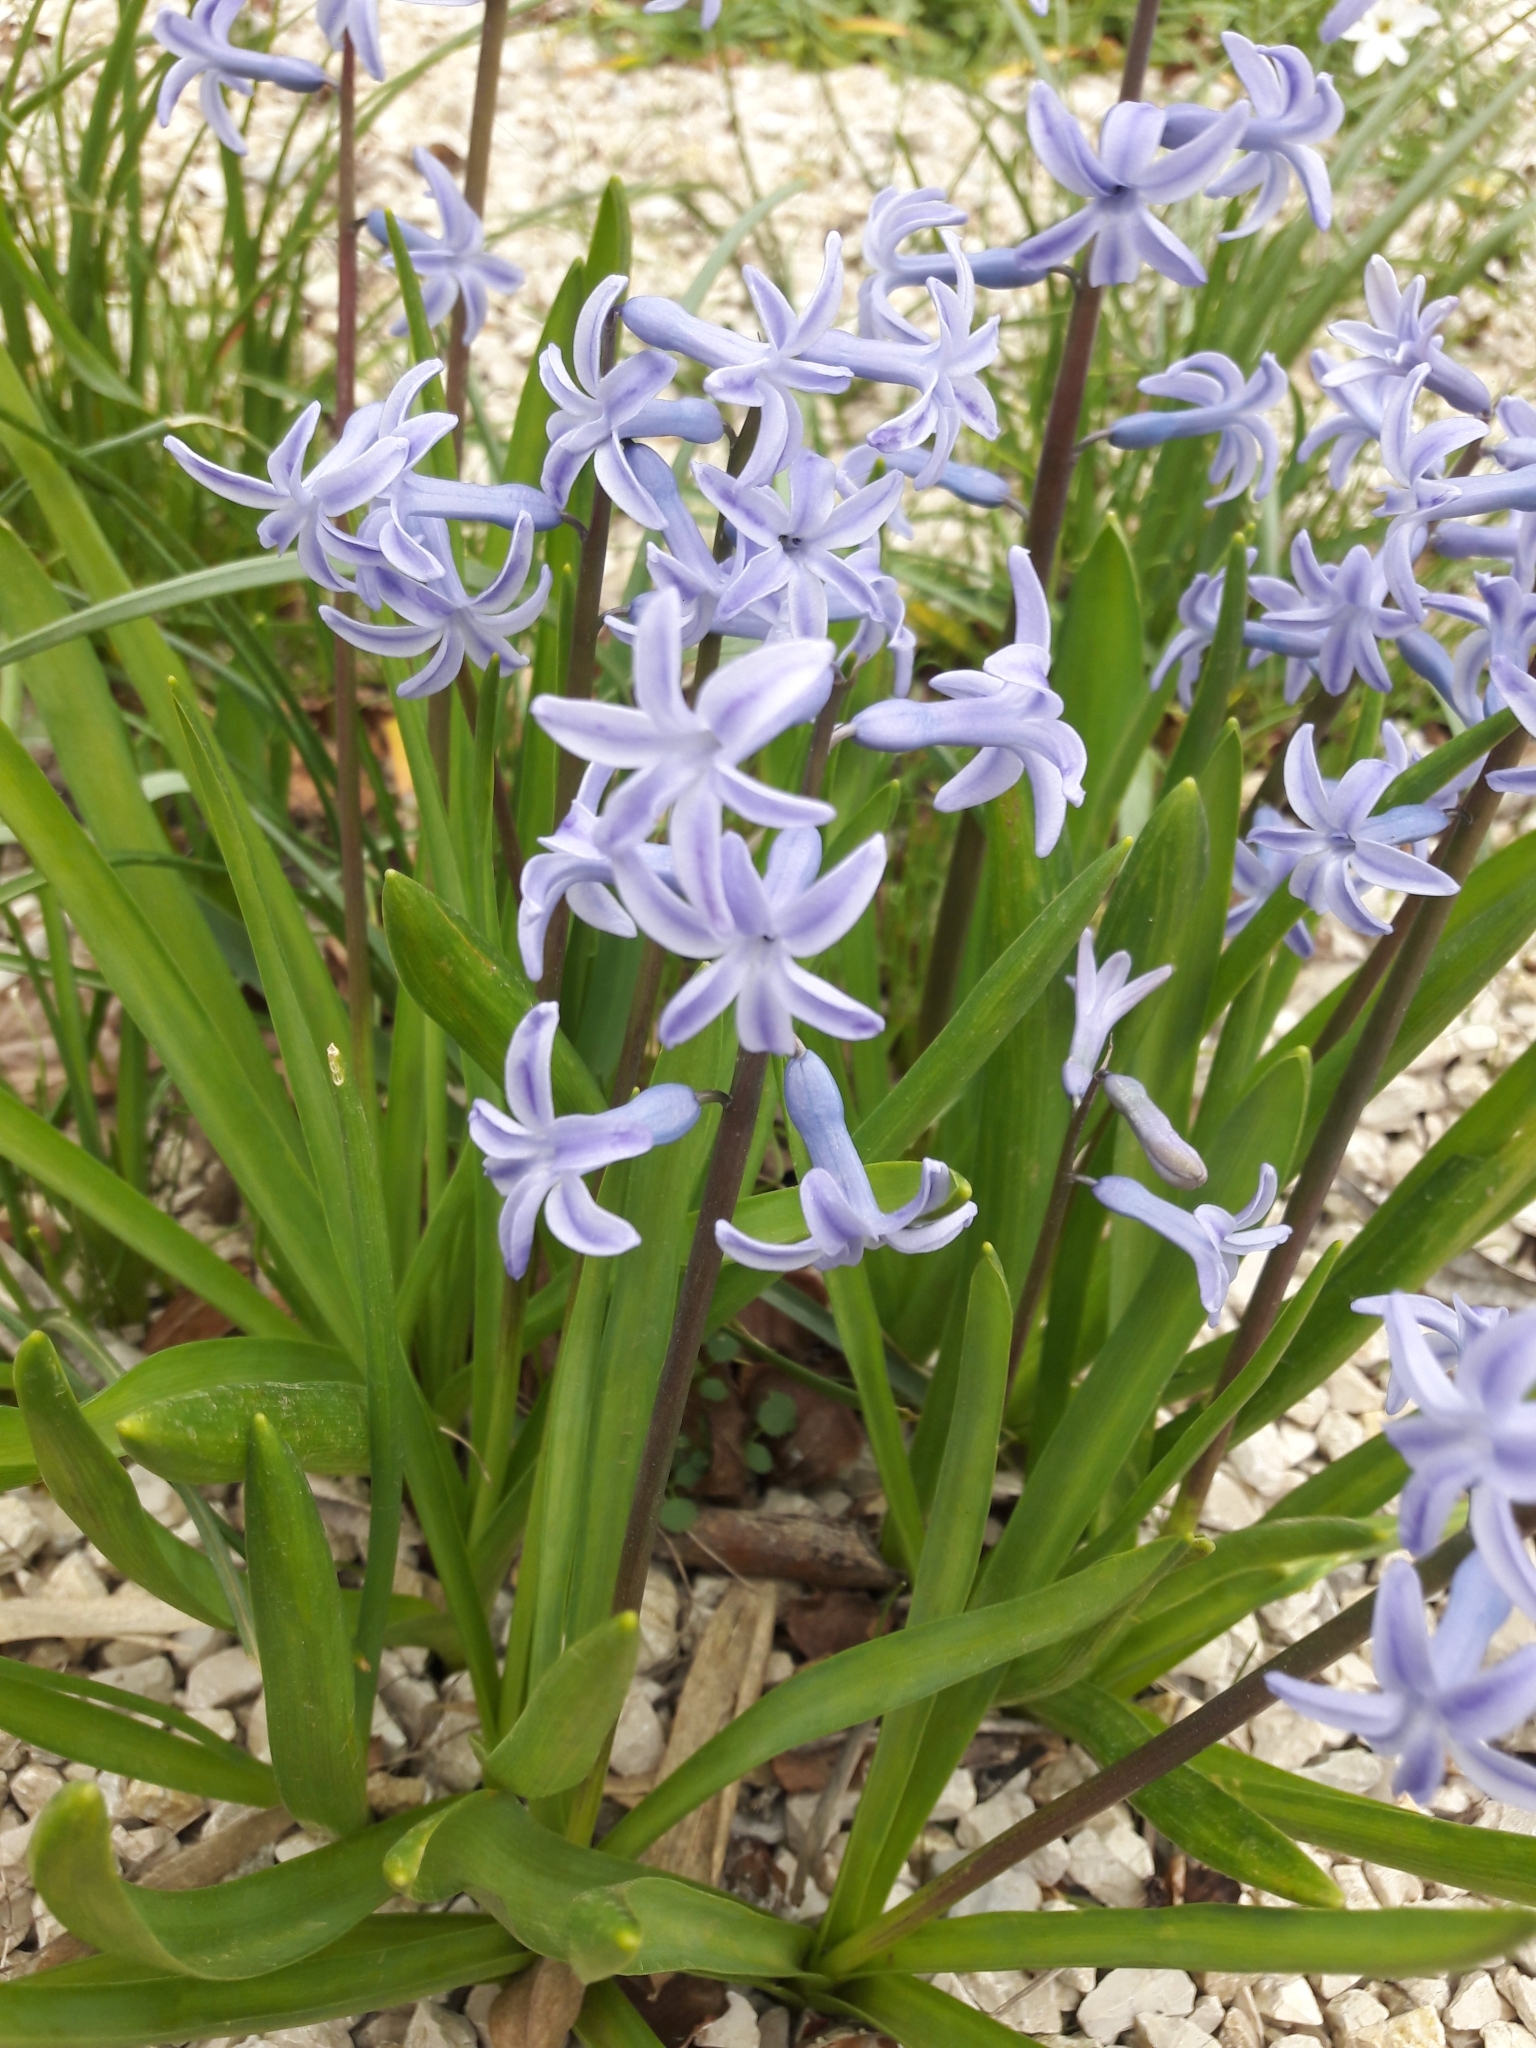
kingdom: Plantae
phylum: Tracheophyta
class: Liliopsida
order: Asparagales
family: Asparagaceae
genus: Hyacinthus
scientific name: Hyacinthus orientalis
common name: Hyacinth
